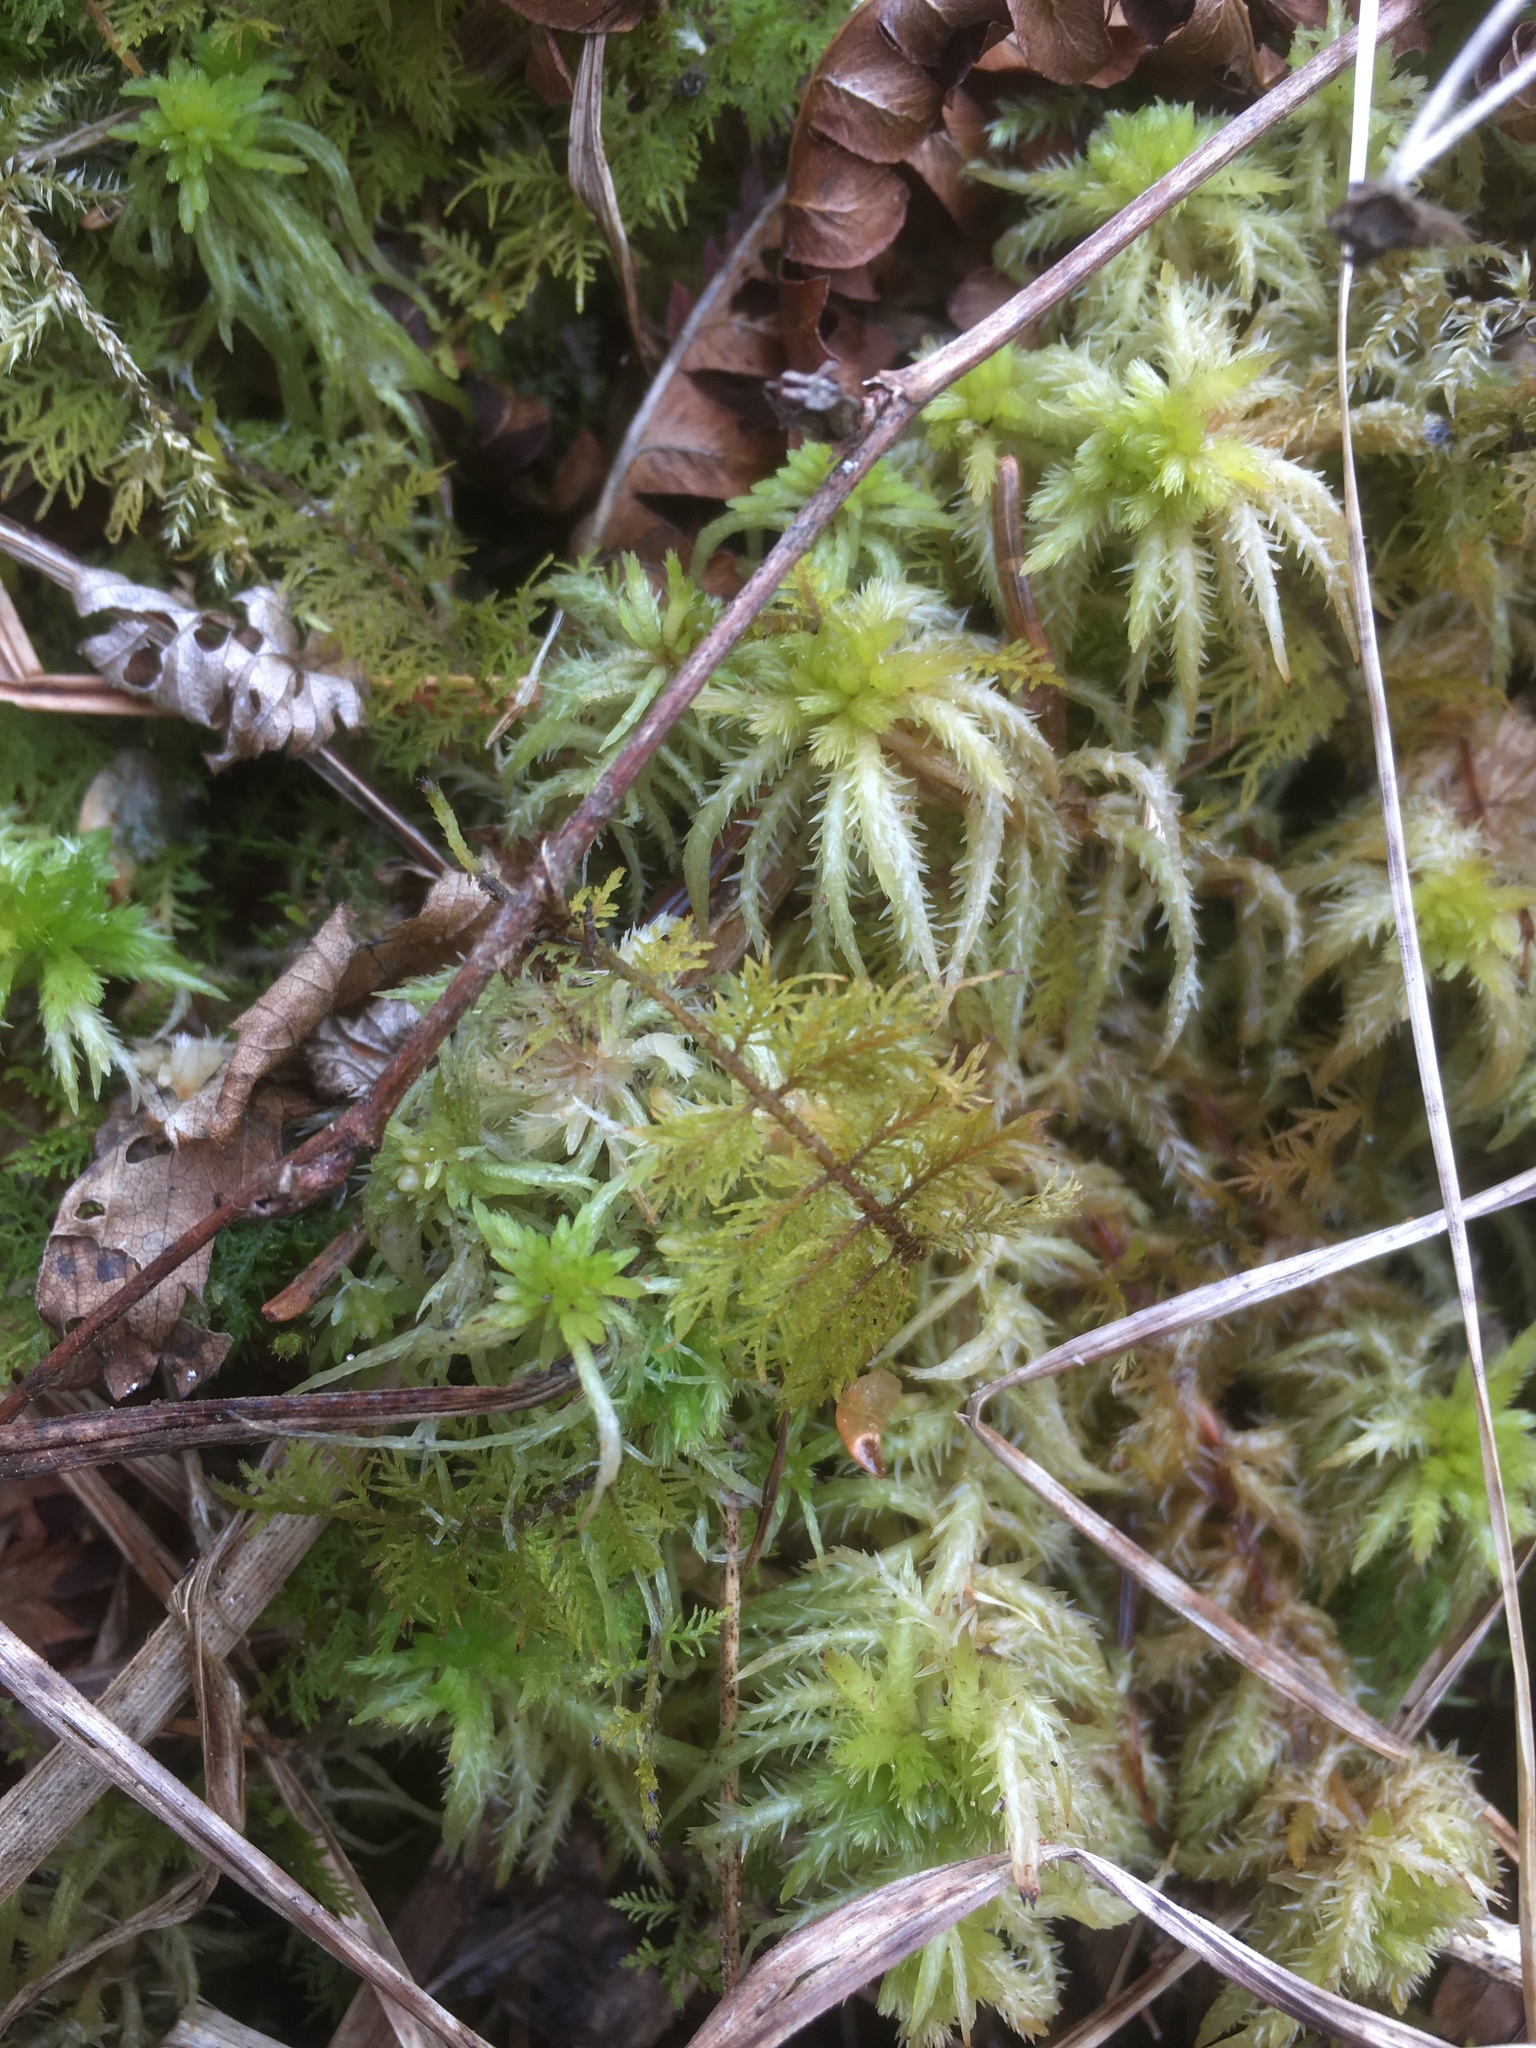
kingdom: Plantae
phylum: Bryophyta
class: Sphagnopsida
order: Sphagnales
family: Sphagnaceae
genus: Sphagnum
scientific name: Sphagnum squarrosum
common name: Shaggy peat moss
